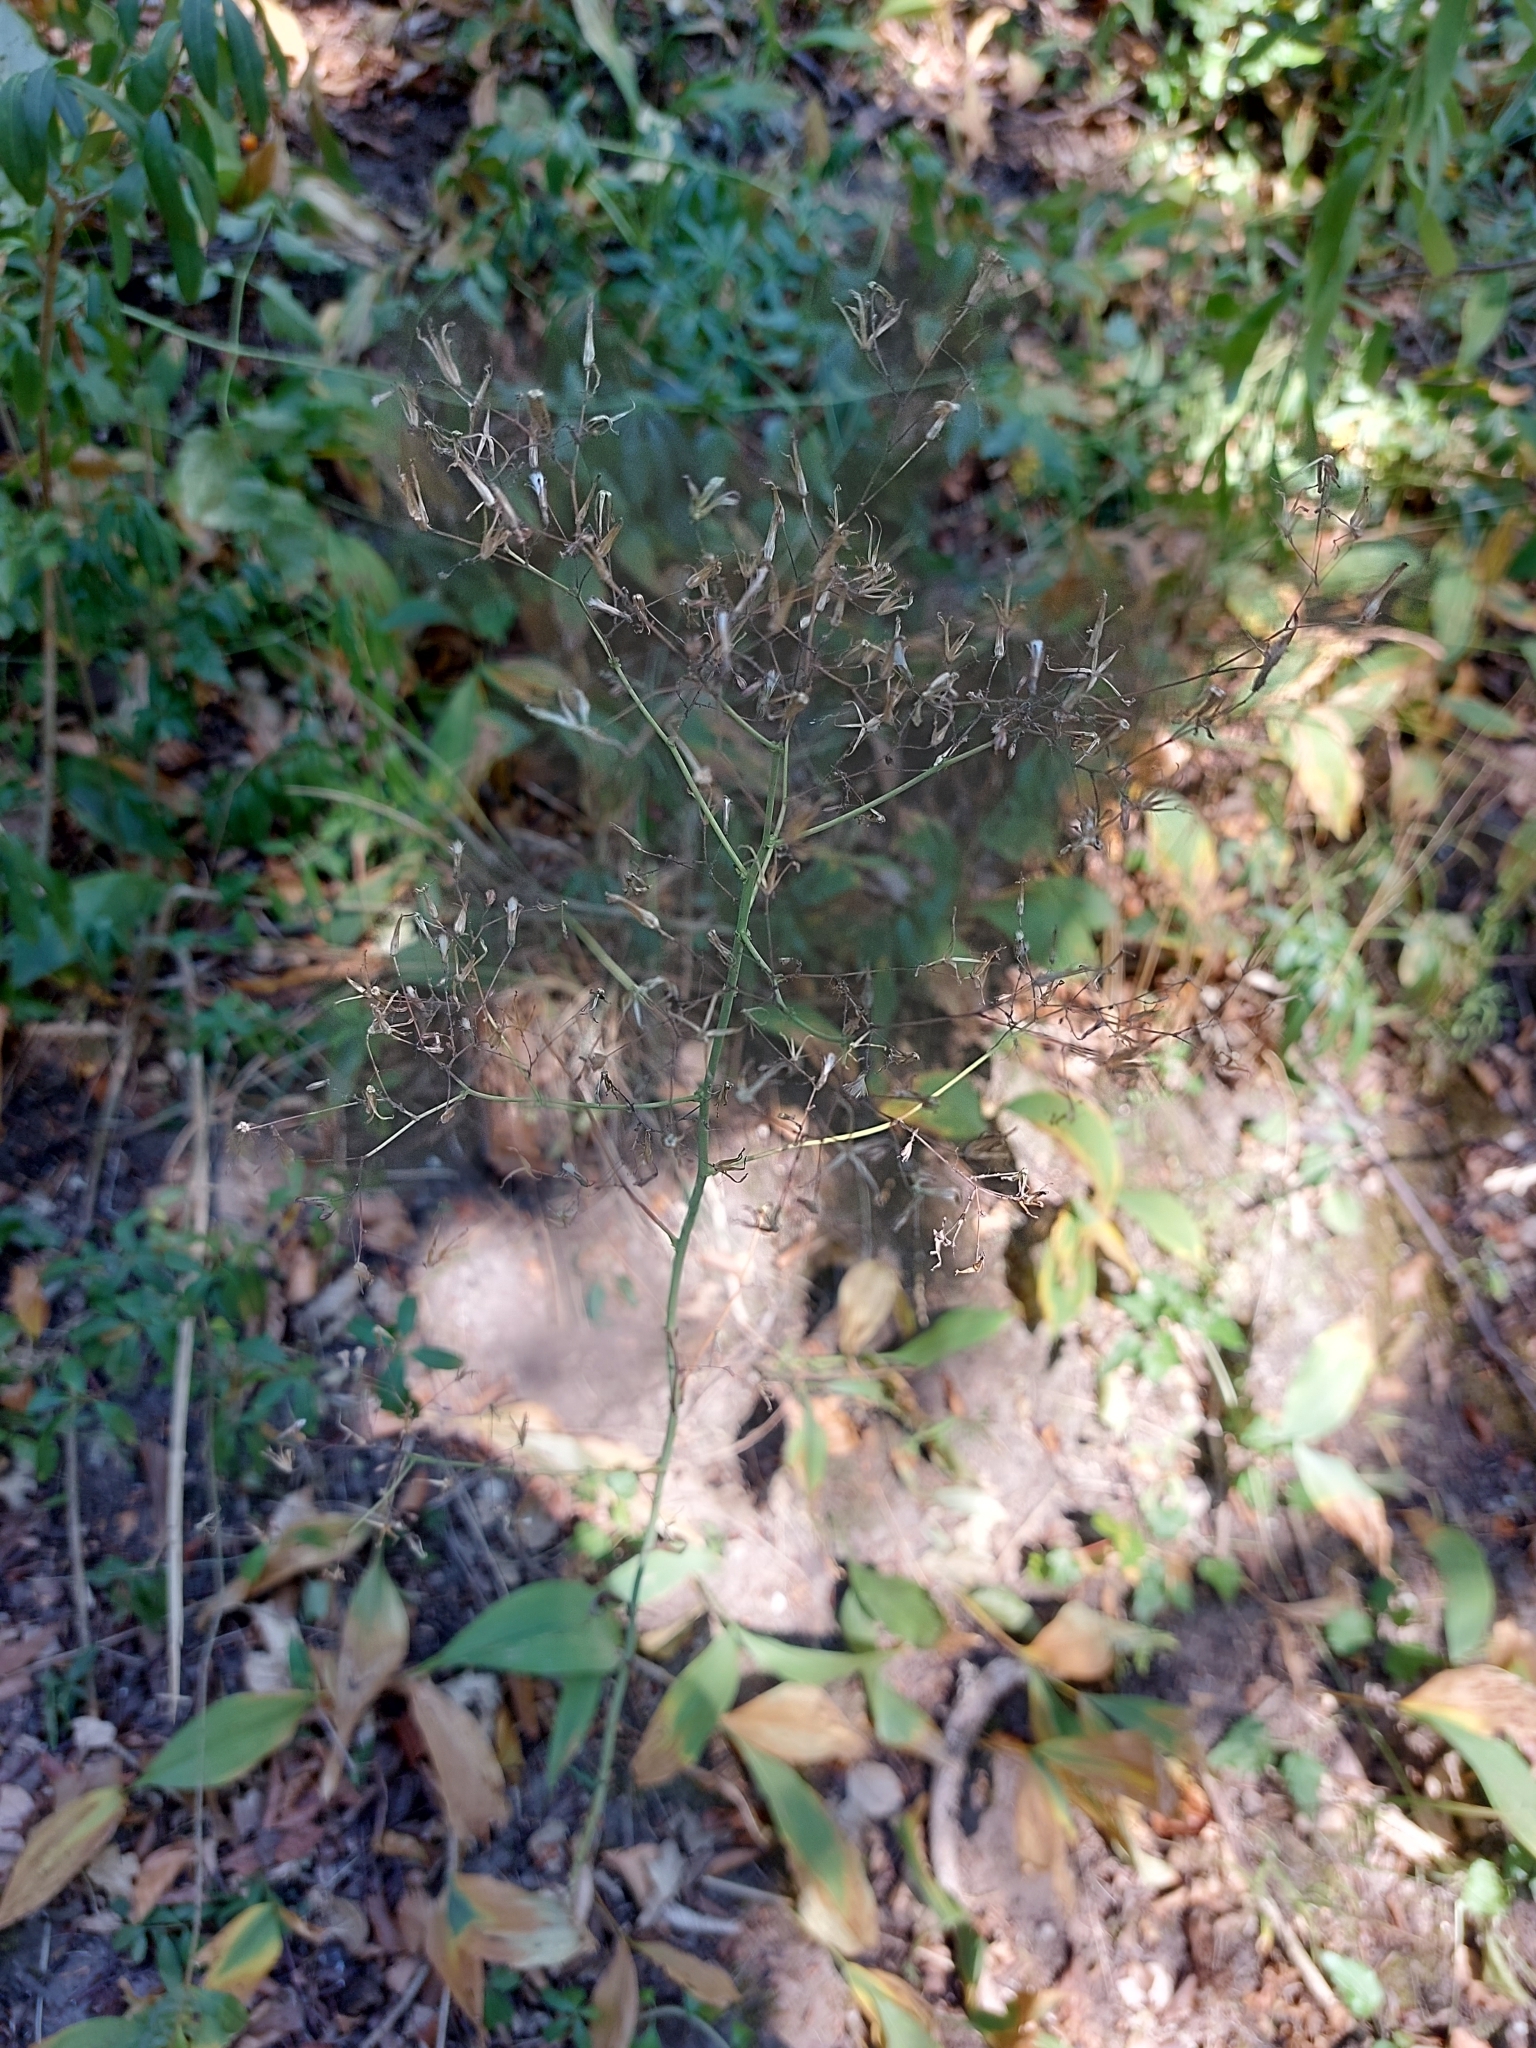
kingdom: Plantae
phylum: Tracheophyta
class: Magnoliopsida
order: Asterales
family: Asteraceae
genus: Mycelis
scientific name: Mycelis muralis
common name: Wall lettuce
